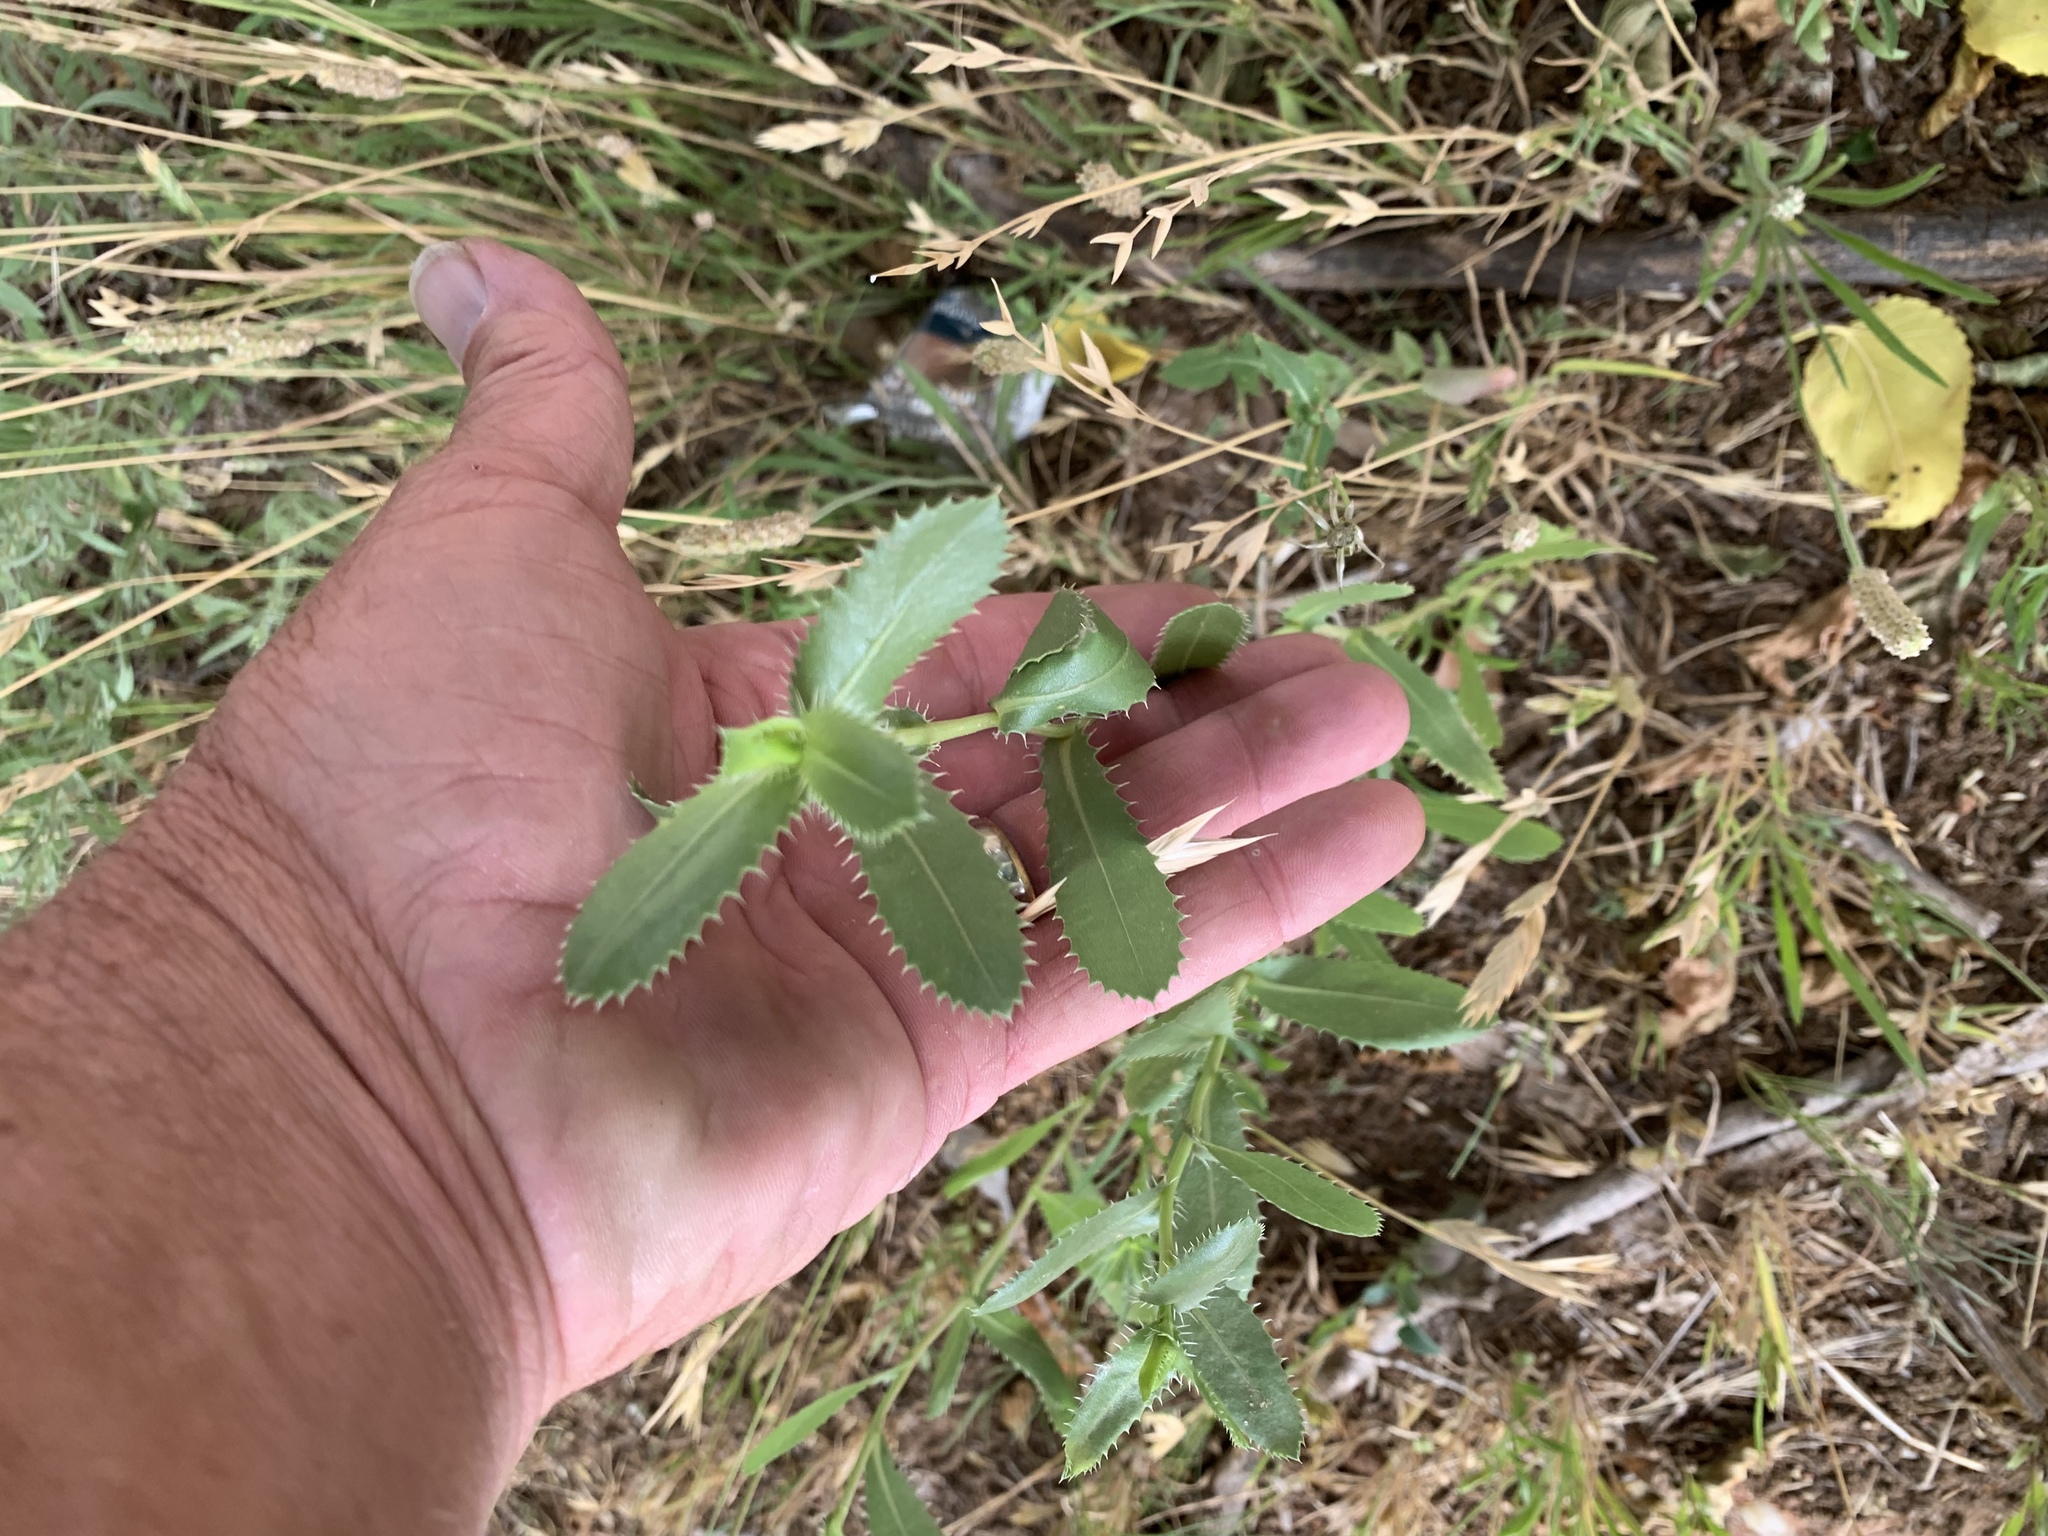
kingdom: Plantae
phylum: Tracheophyta
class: Magnoliopsida
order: Asterales
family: Asteraceae
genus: Grindelia
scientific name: Grindelia ciliata
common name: Goldenweed
